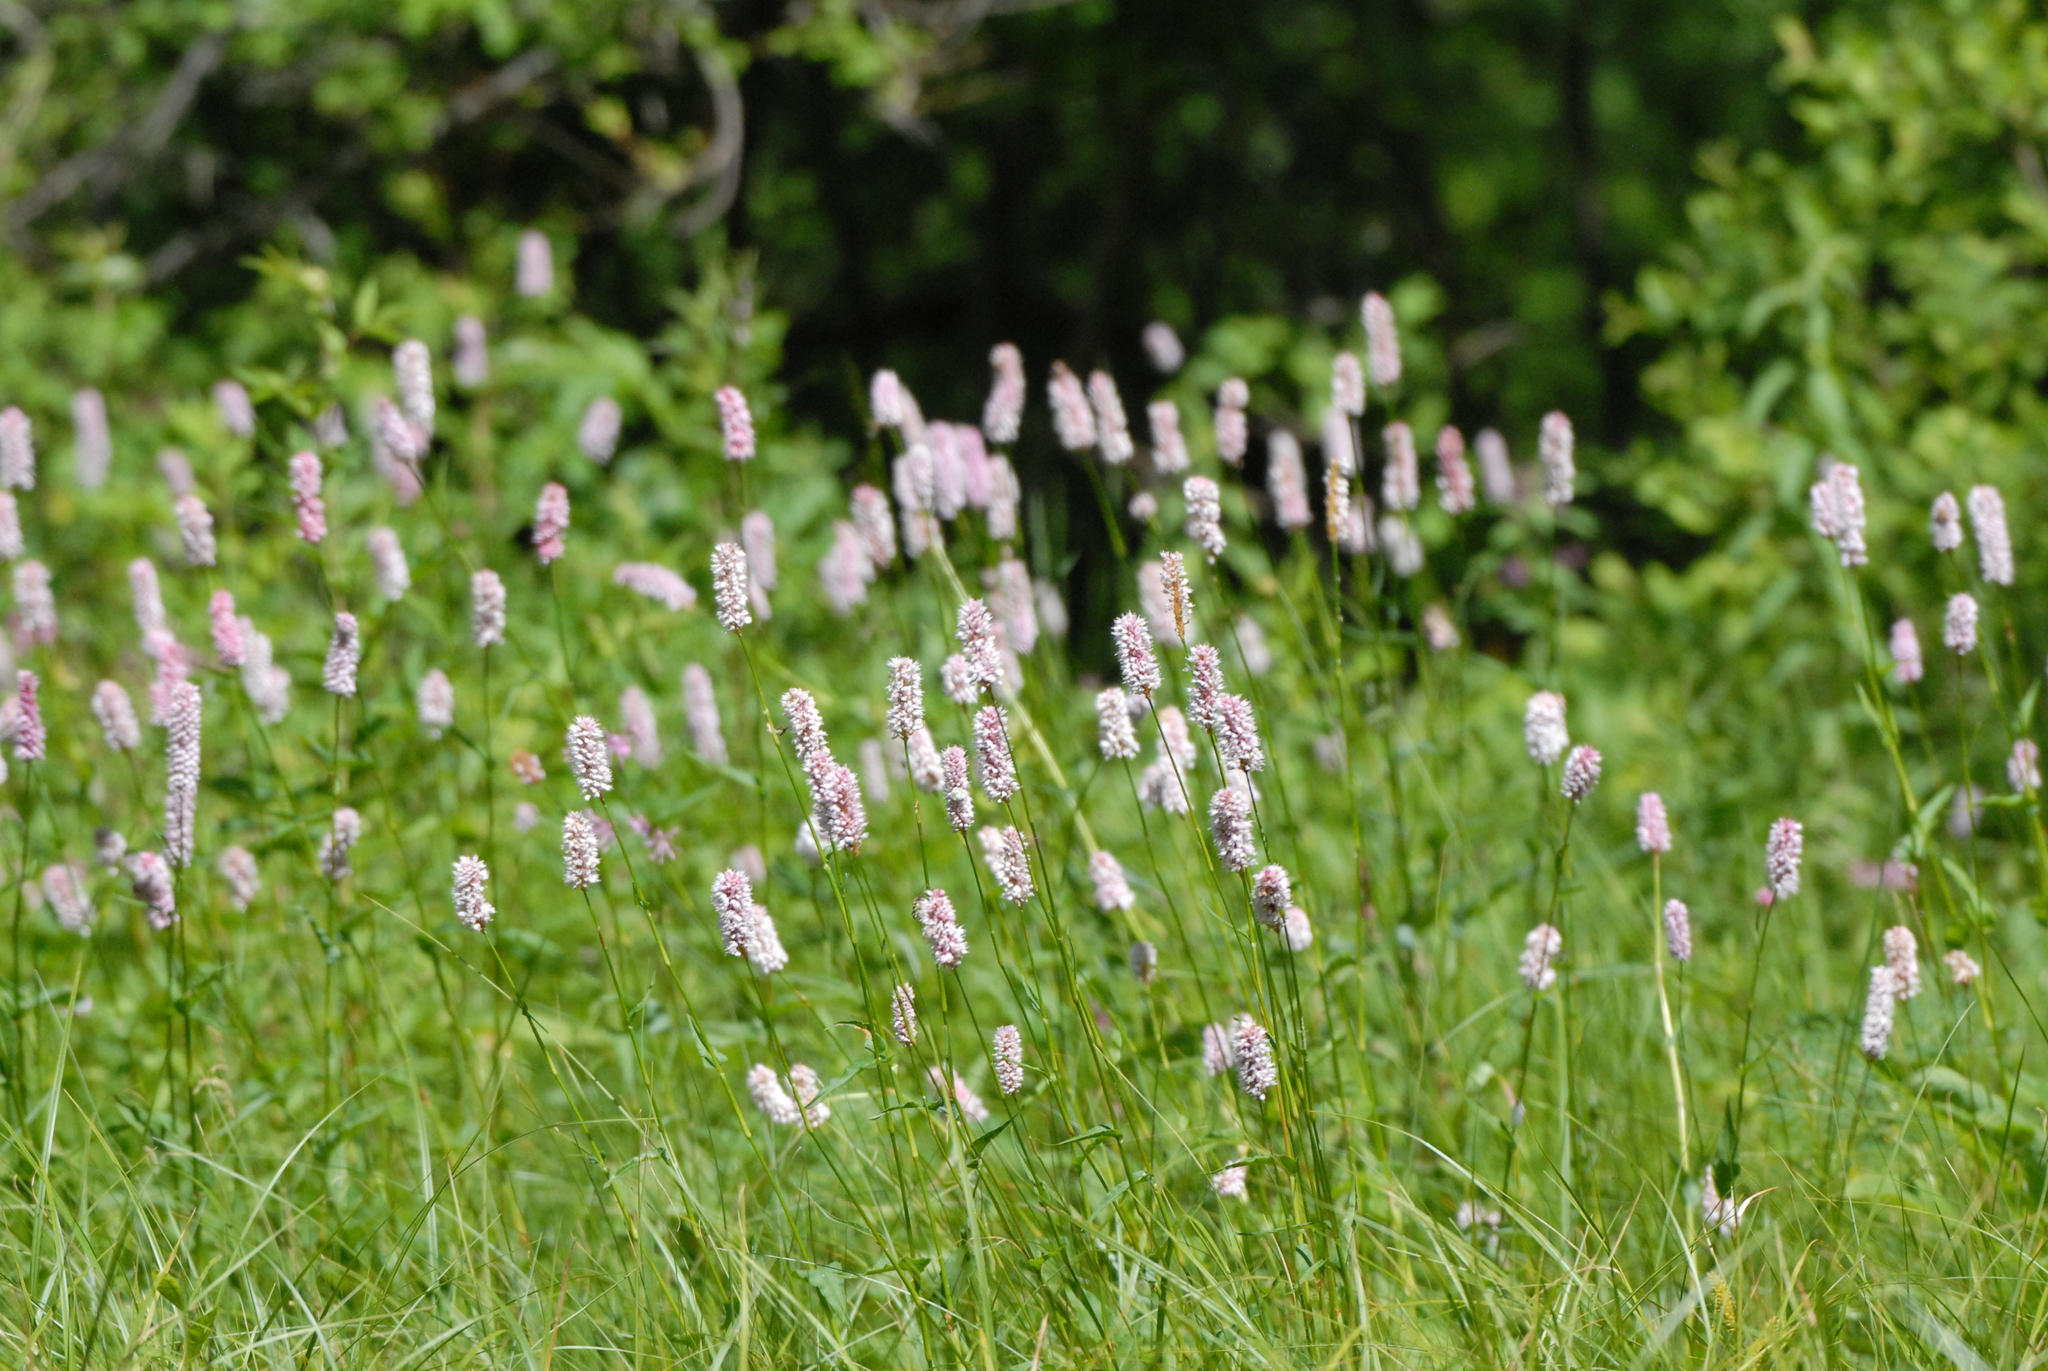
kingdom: Plantae
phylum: Tracheophyta
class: Magnoliopsida
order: Caryophyllales
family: Polygonaceae
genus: Bistorta
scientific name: Bistorta officinalis
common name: Common bistort
